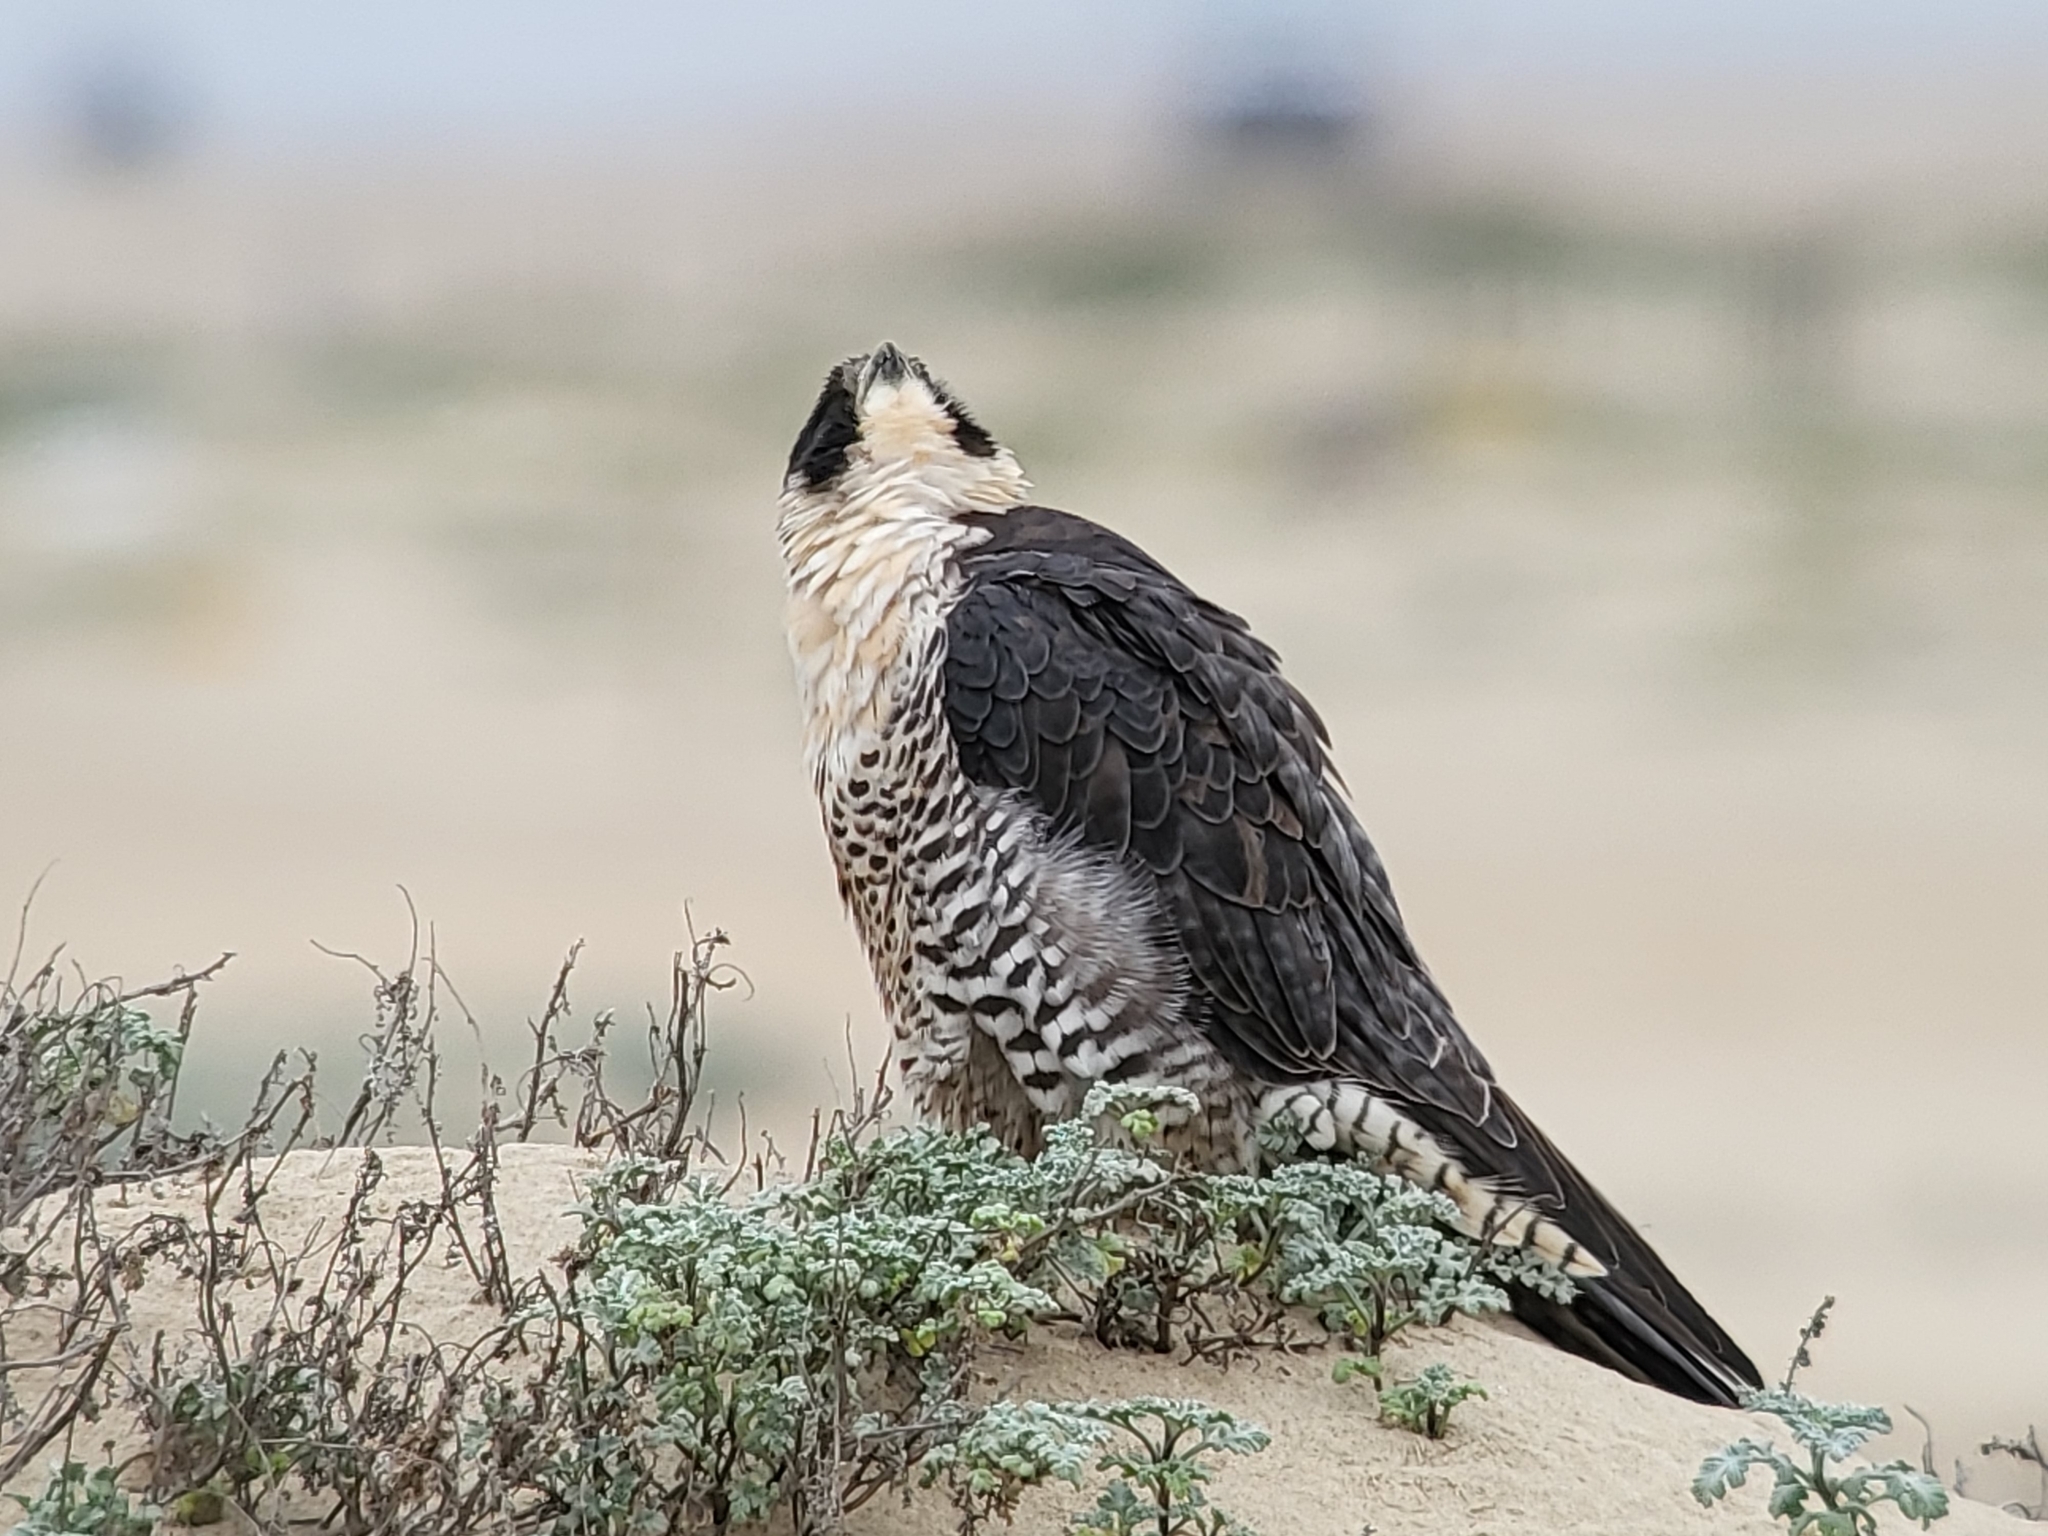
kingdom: Animalia
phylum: Chordata
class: Aves
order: Falconiformes
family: Falconidae
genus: Falco
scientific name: Falco peregrinus
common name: Peregrine falcon
